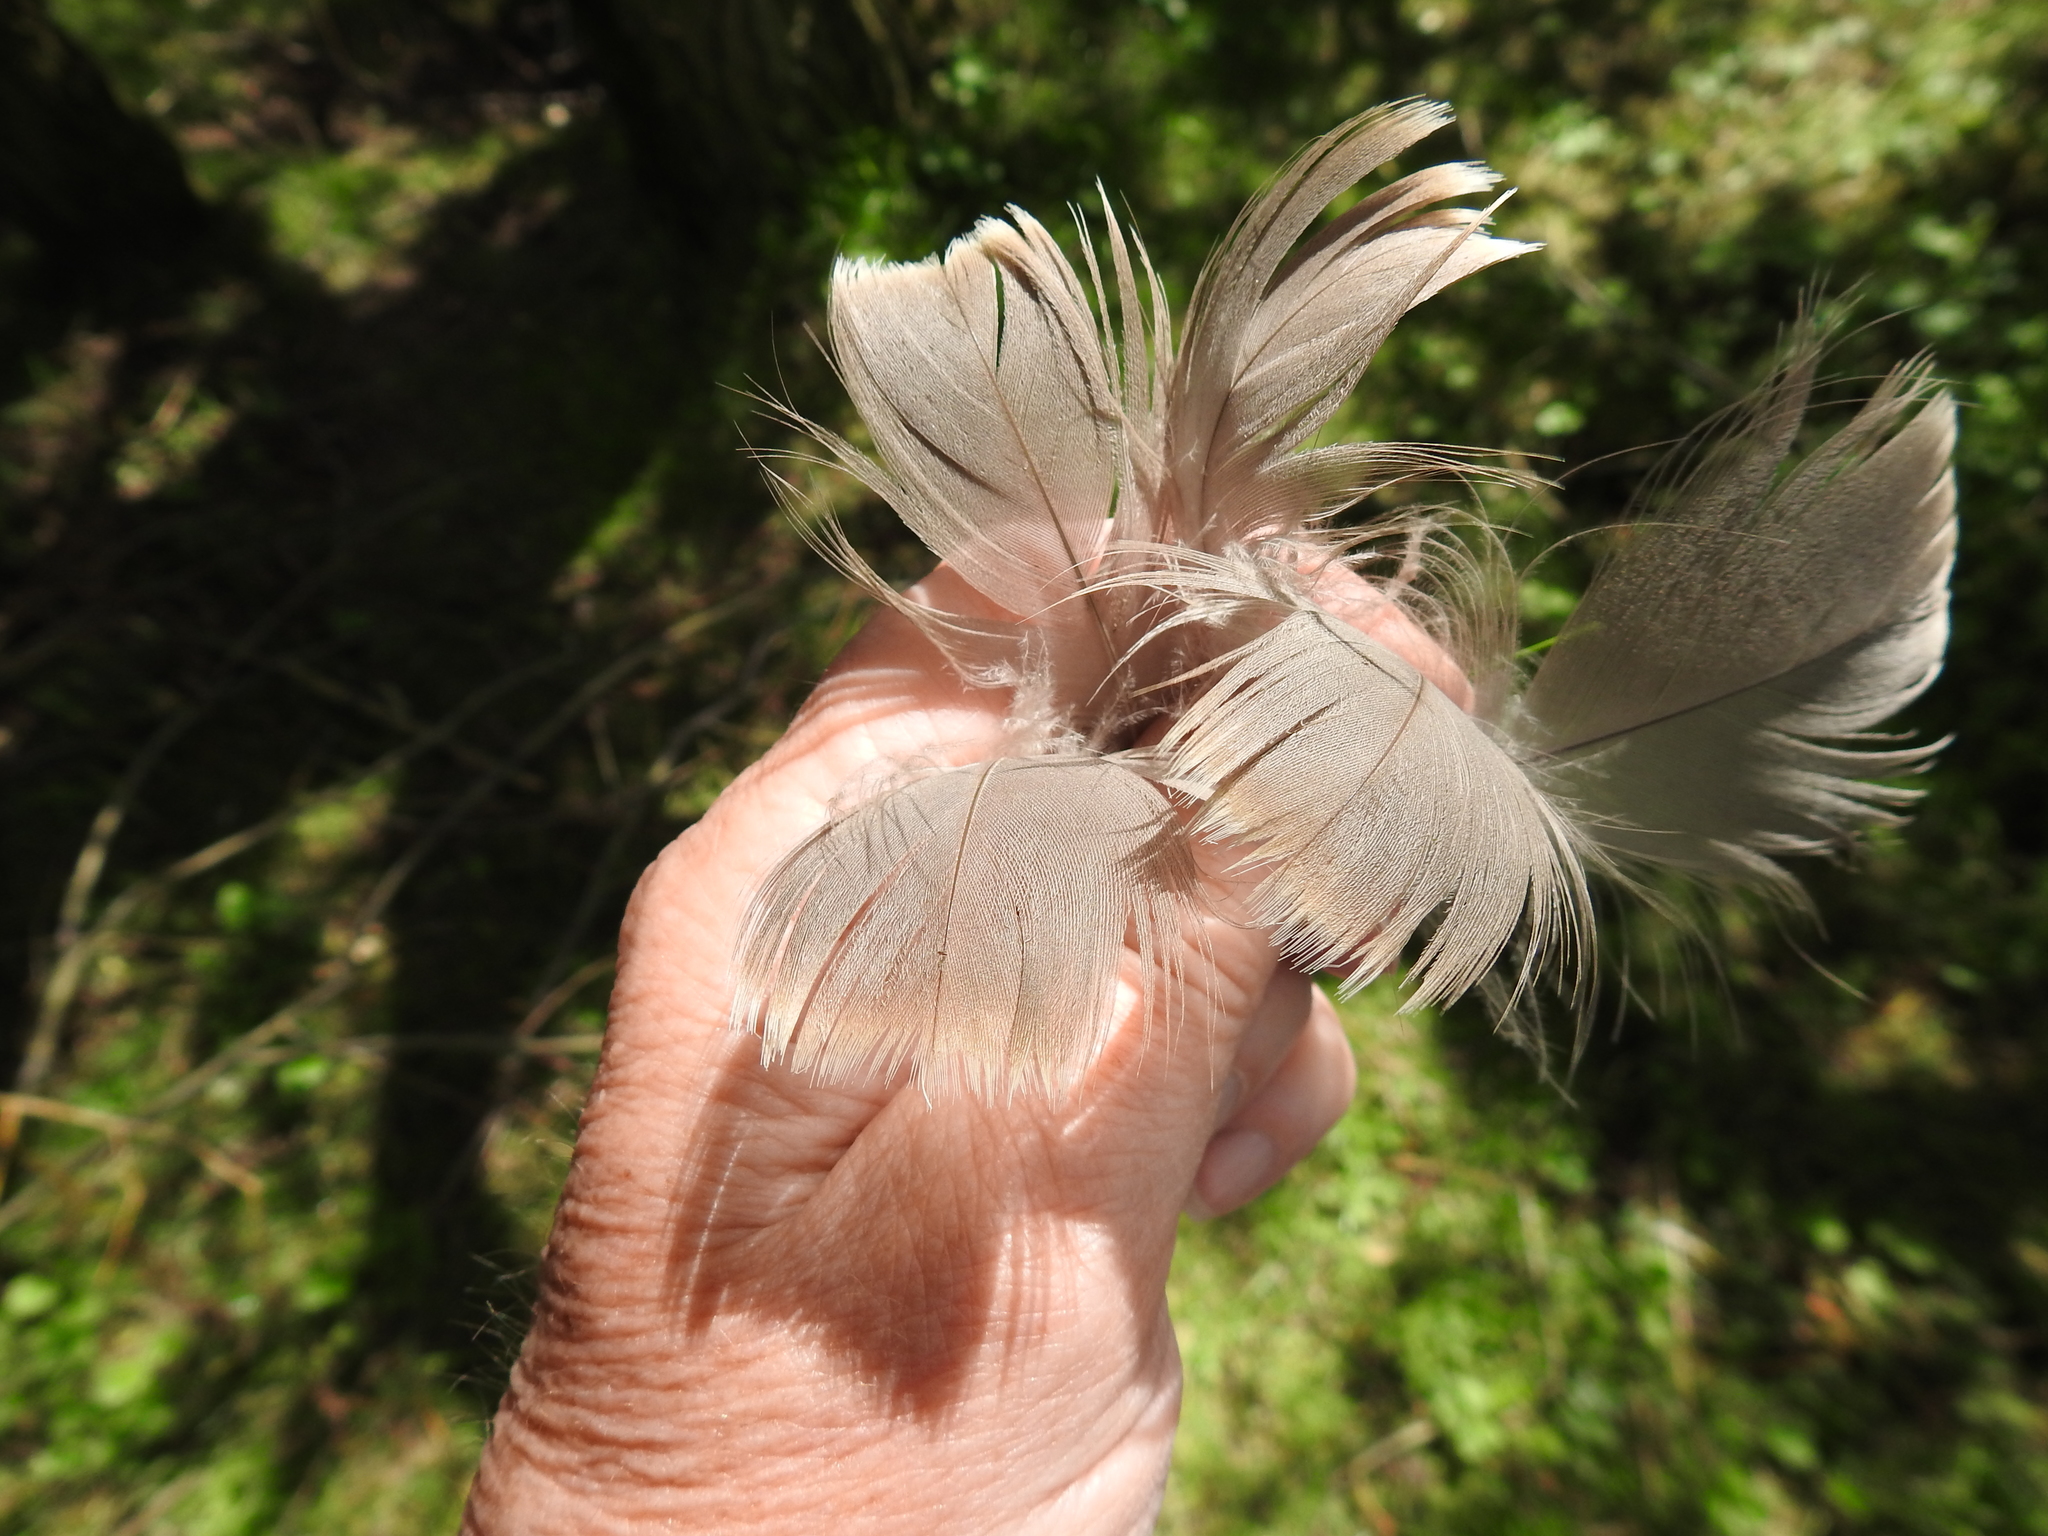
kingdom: Animalia
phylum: Chordata
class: Aves
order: Anseriformes
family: Anatidae
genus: Branta
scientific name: Branta canadensis
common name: Canada goose
